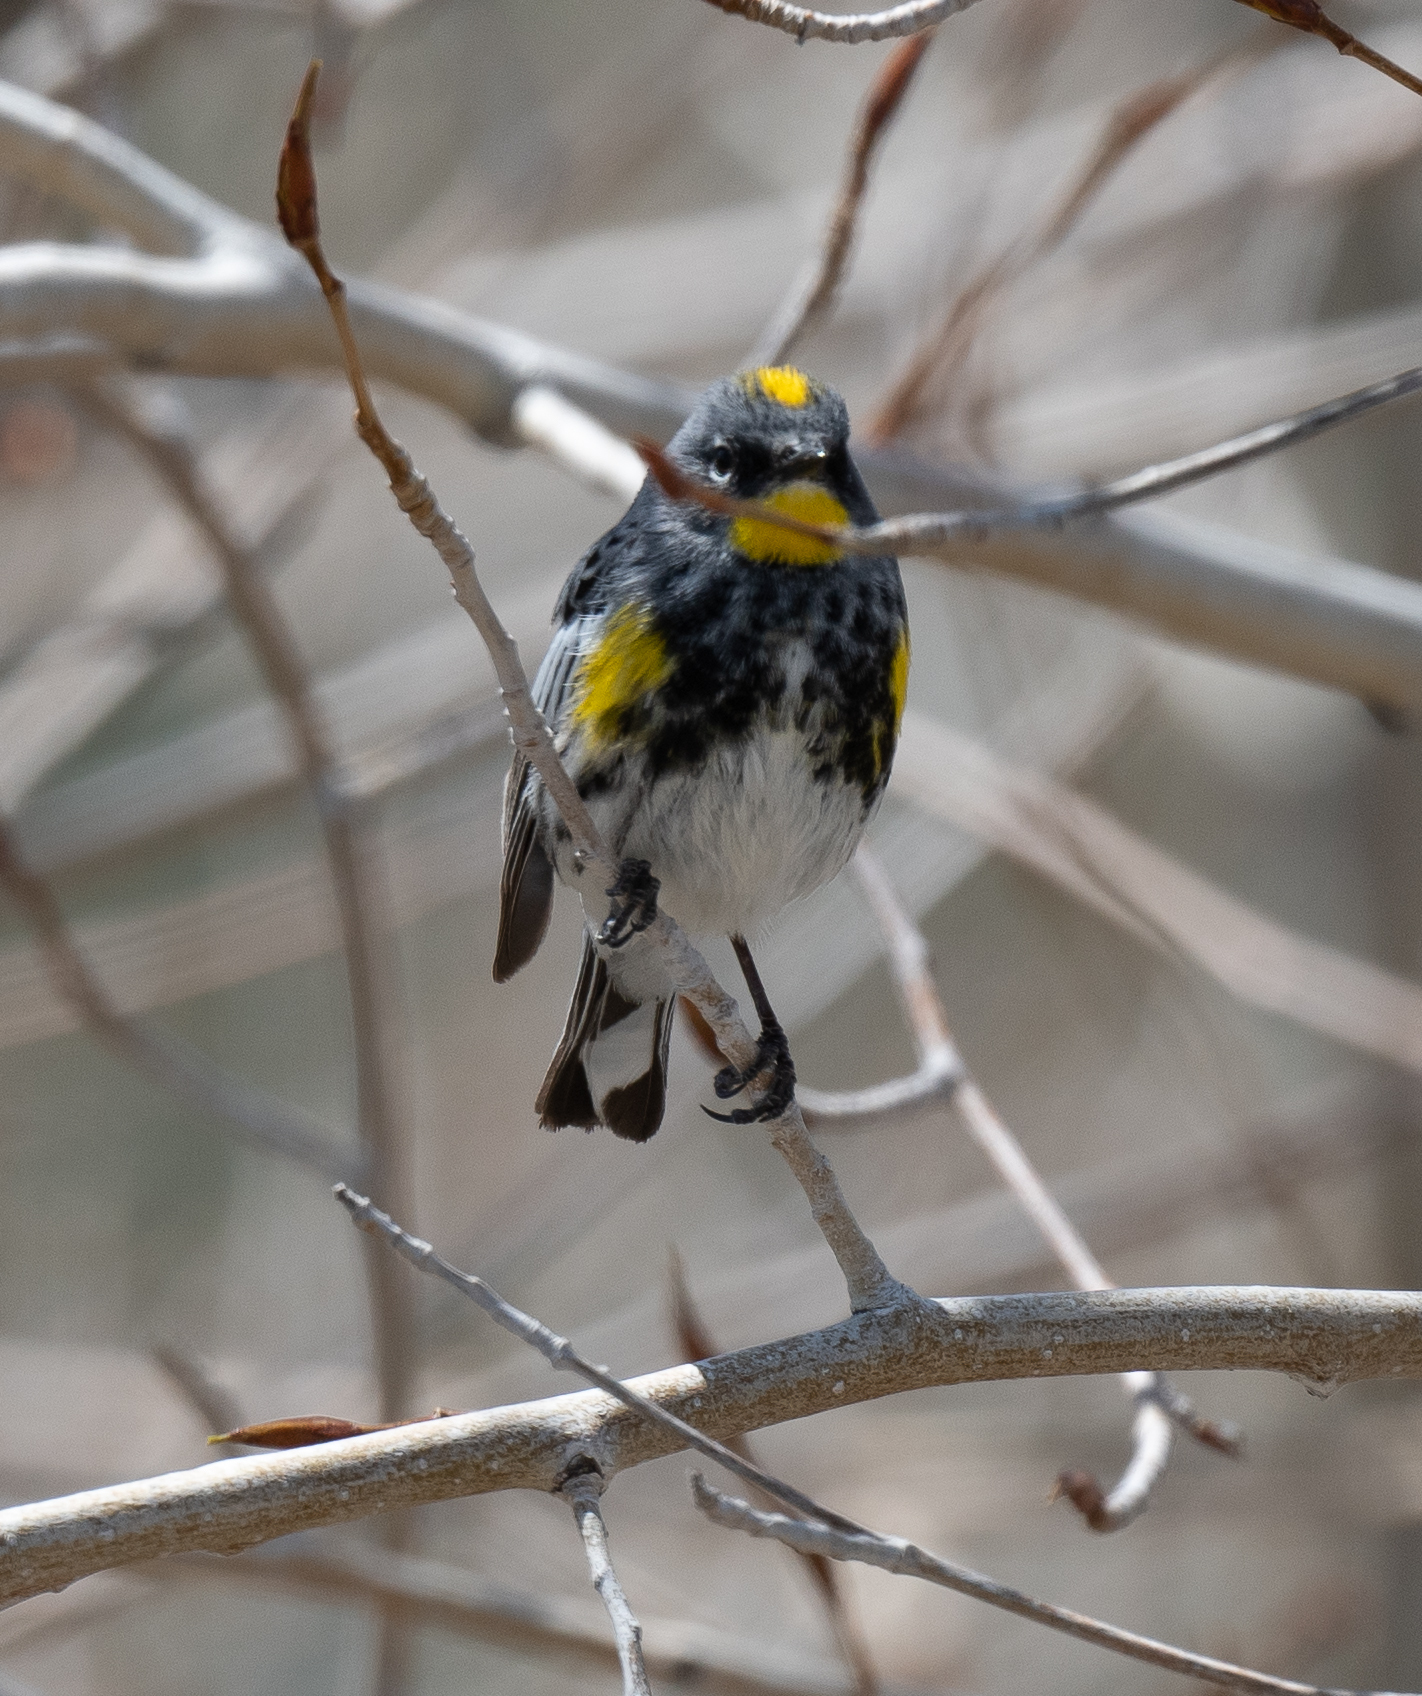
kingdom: Animalia
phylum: Chordata
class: Aves
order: Passeriformes
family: Parulidae
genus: Setophaga
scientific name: Setophaga coronata
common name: Myrtle warbler
